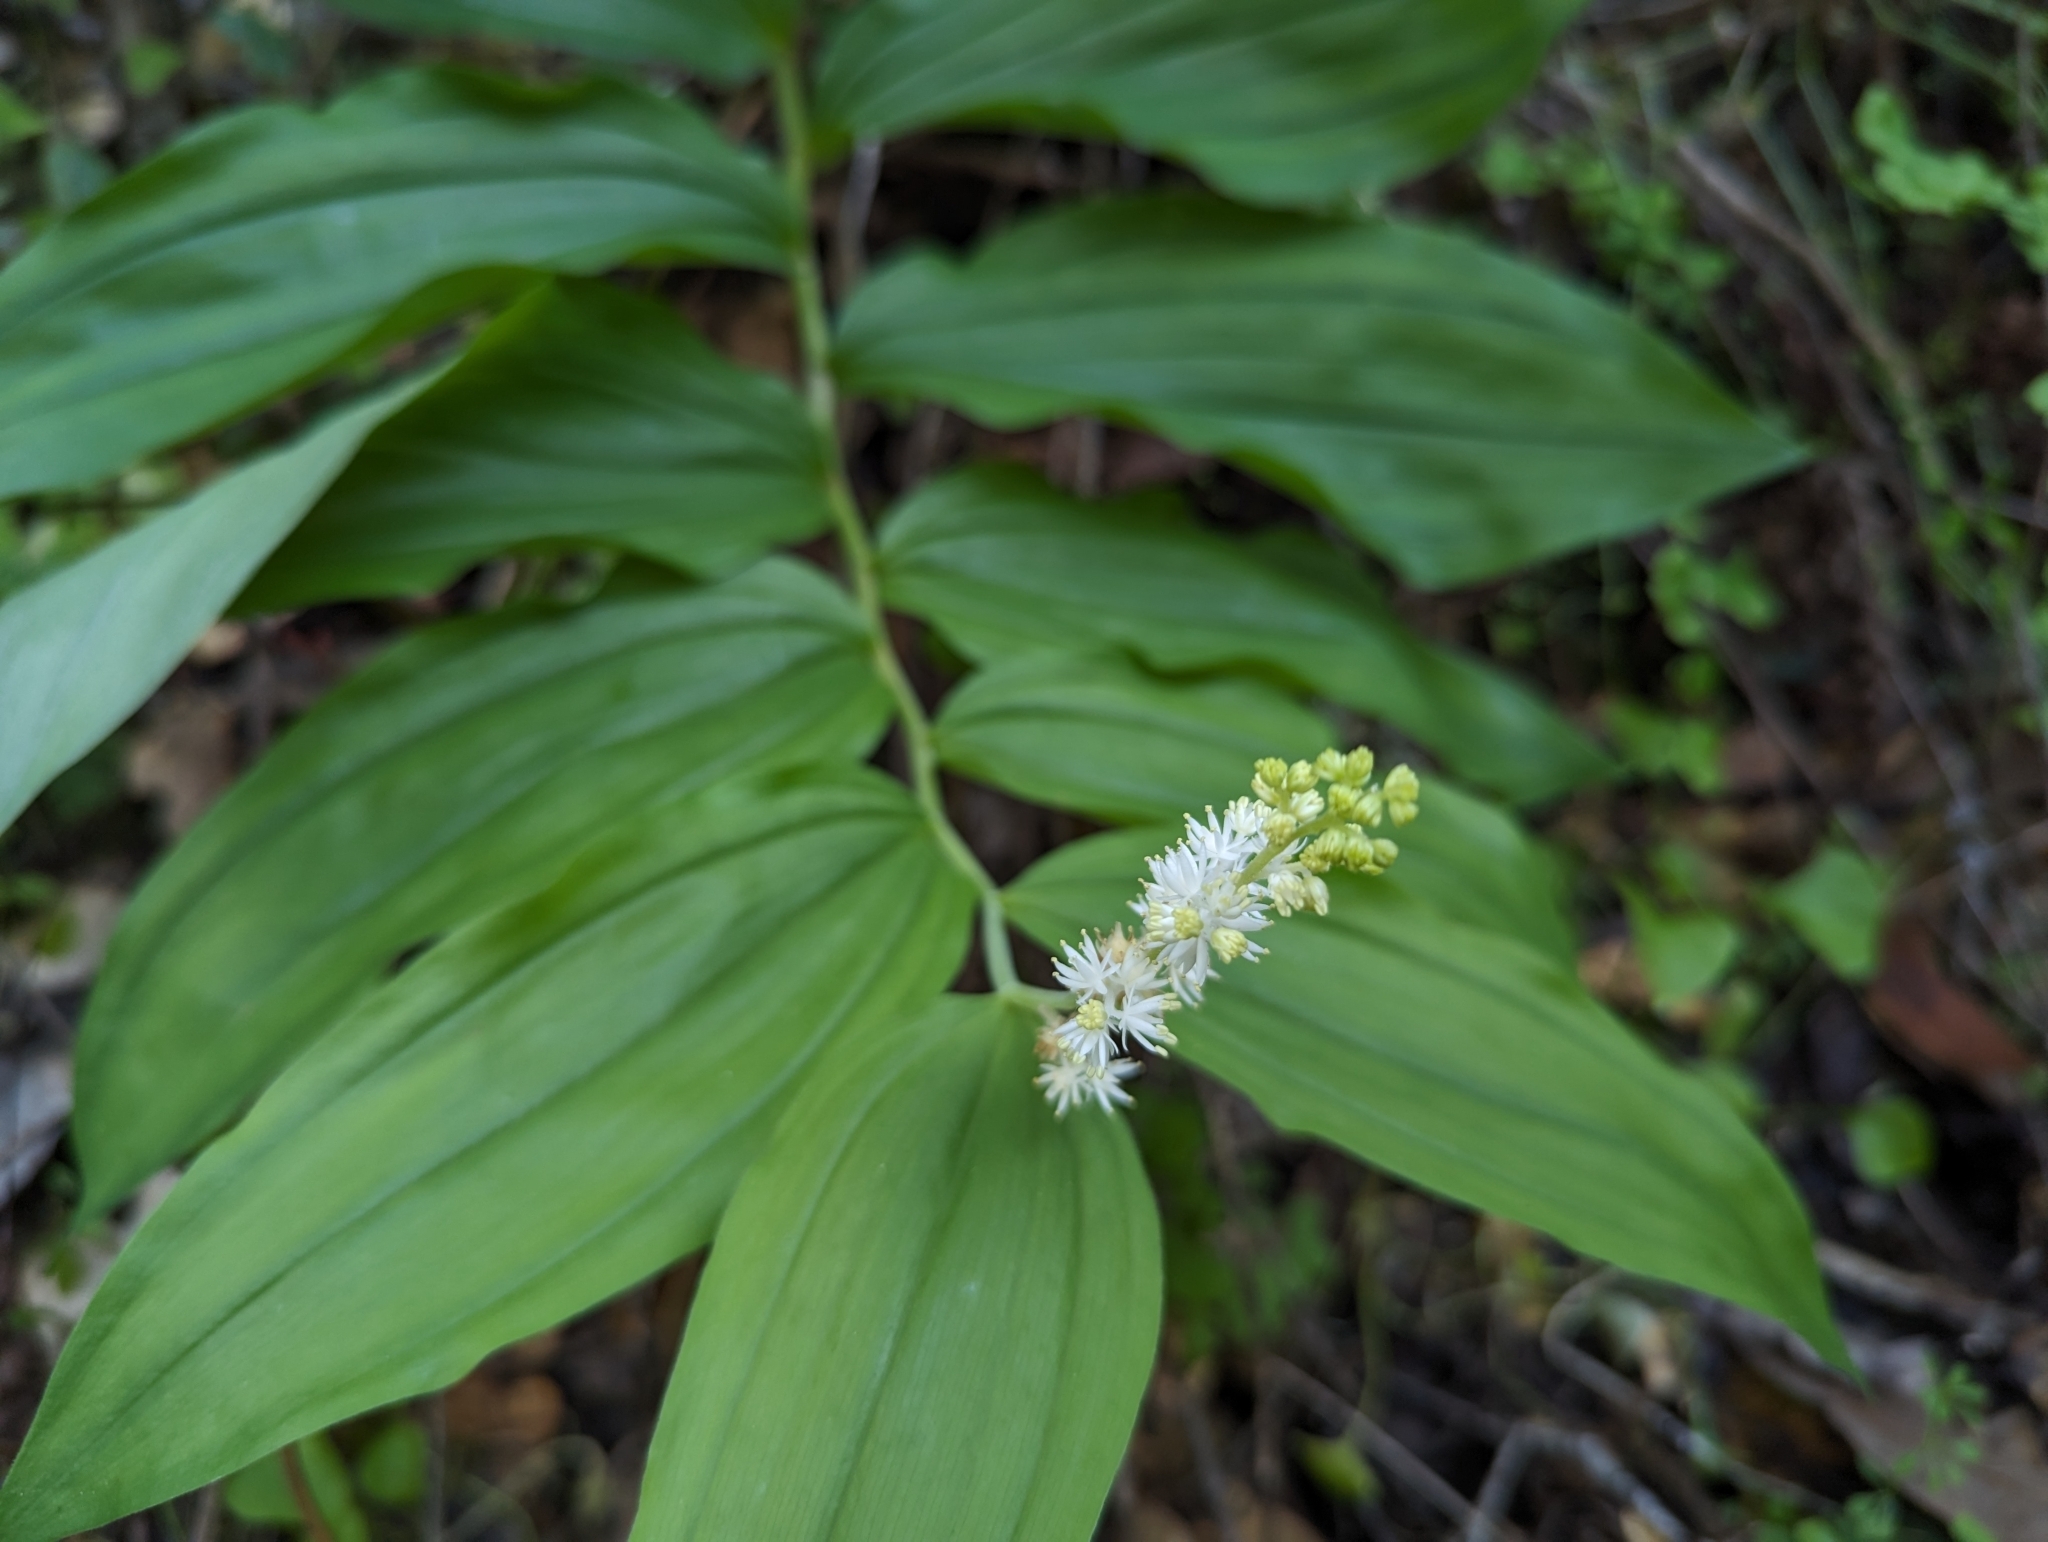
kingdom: Plantae
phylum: Tracheophyta
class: Liliopsida
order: Asparagales
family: Asparagaceae
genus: Maianthemum
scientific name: Maianthemum racemosum
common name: False spikenard
